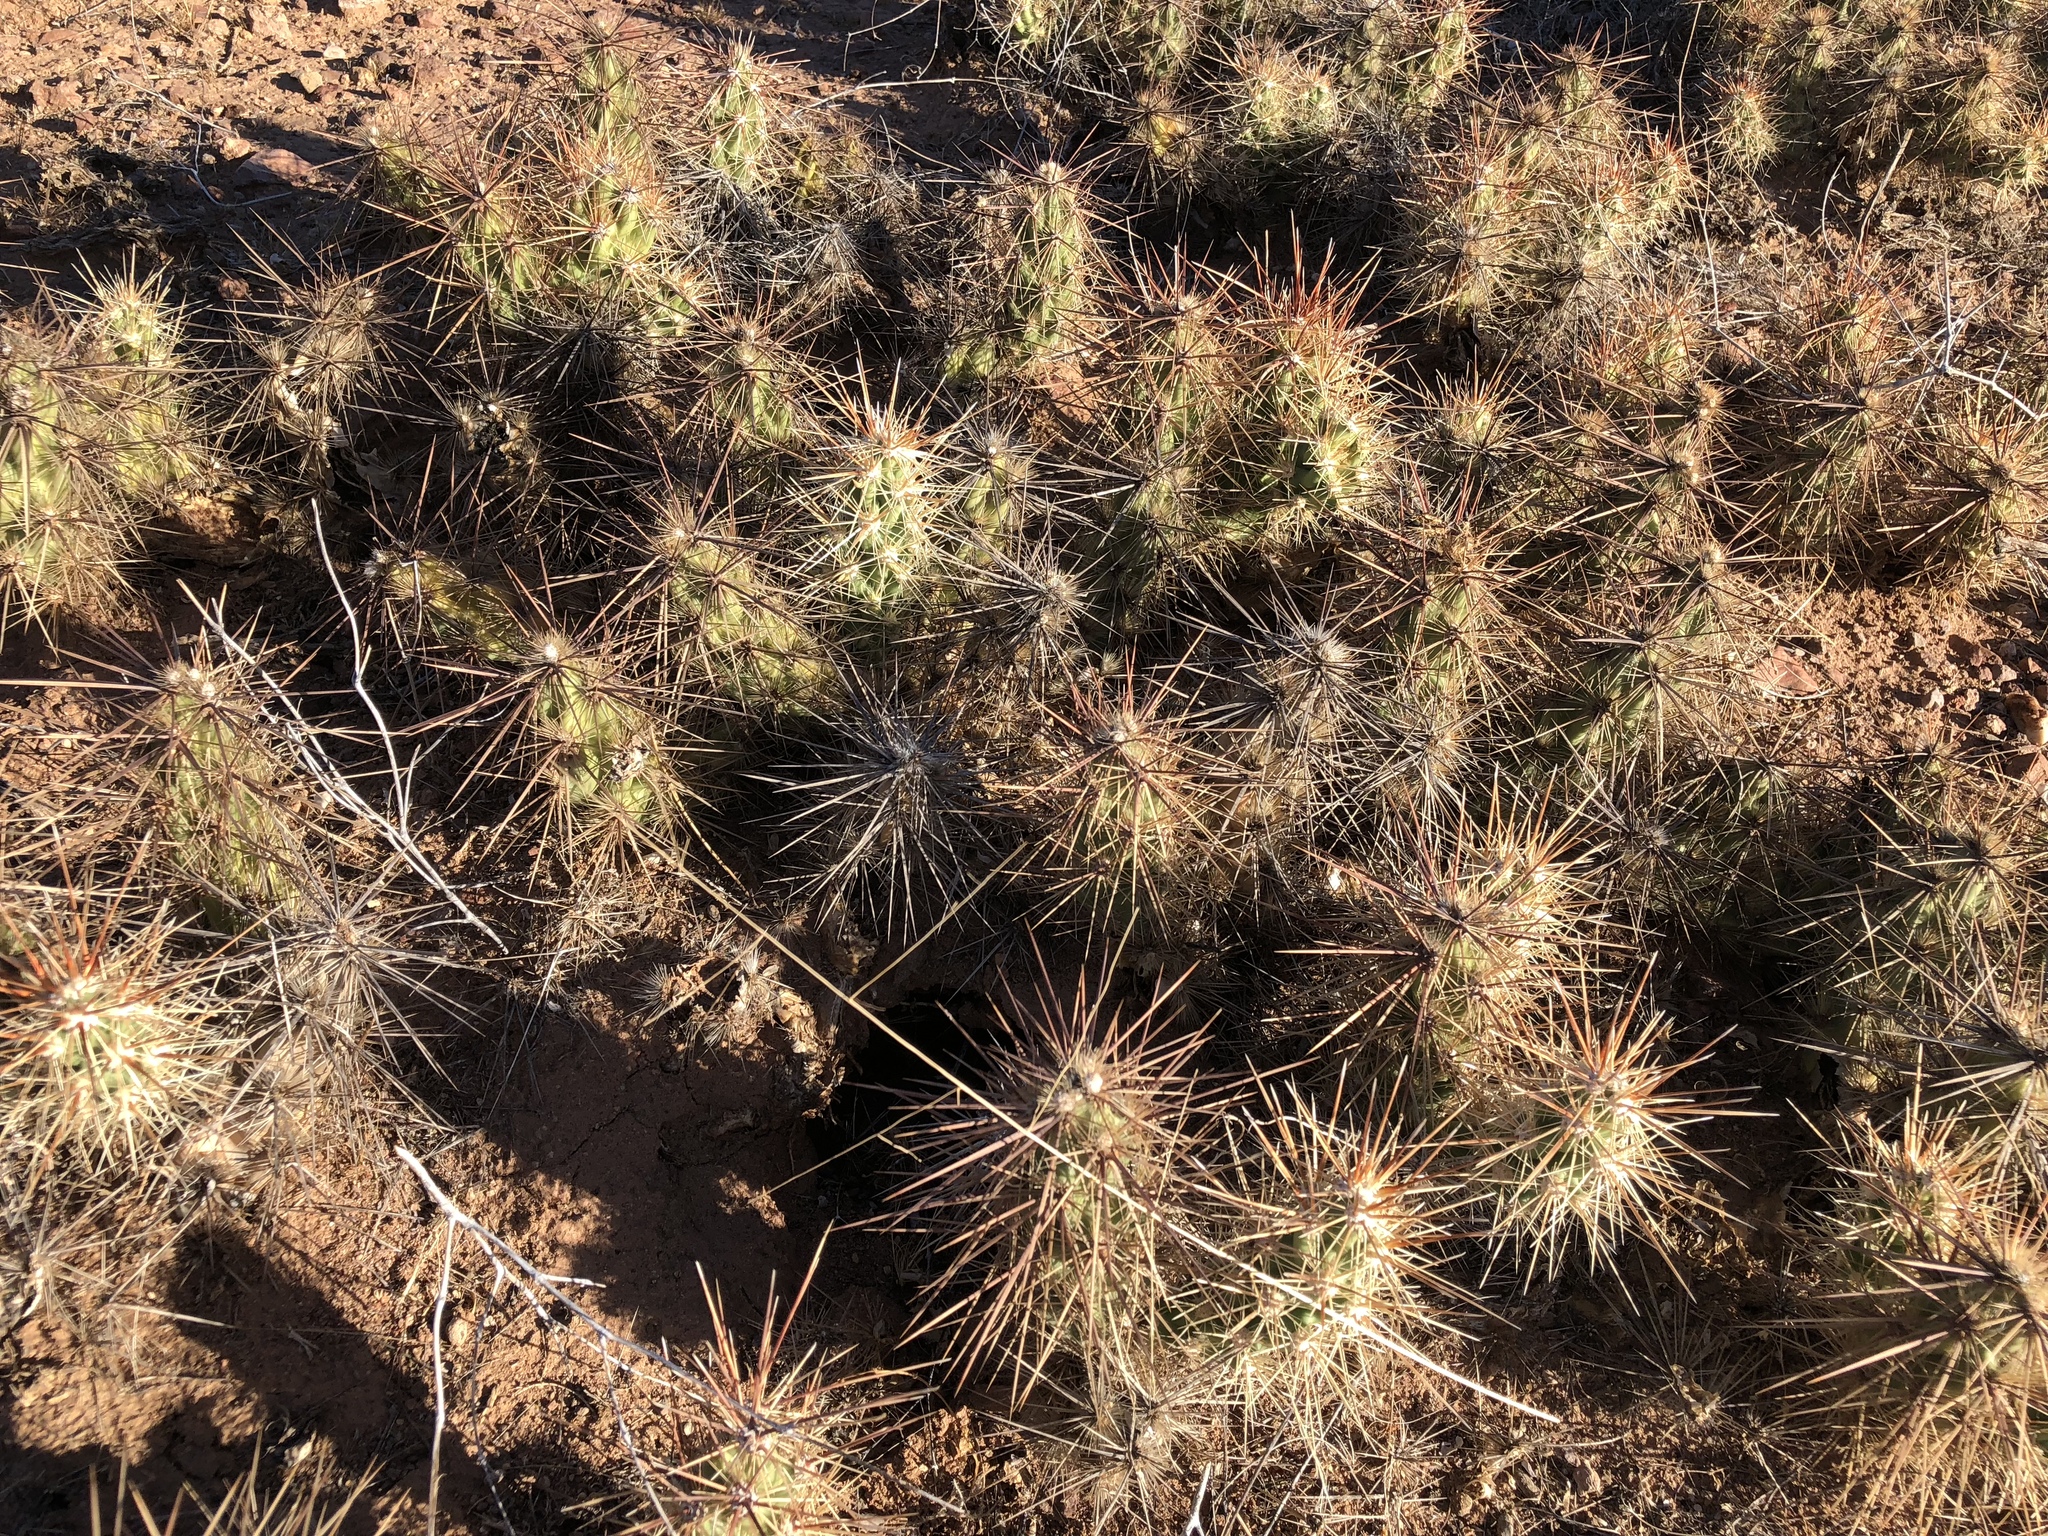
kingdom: Plantae
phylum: Tracheophyta
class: Magnoliopsida
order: Caryophyllales
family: Cactaceae
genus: Grusonia
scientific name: Grusonia emoryi
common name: Stanly's club cholla
